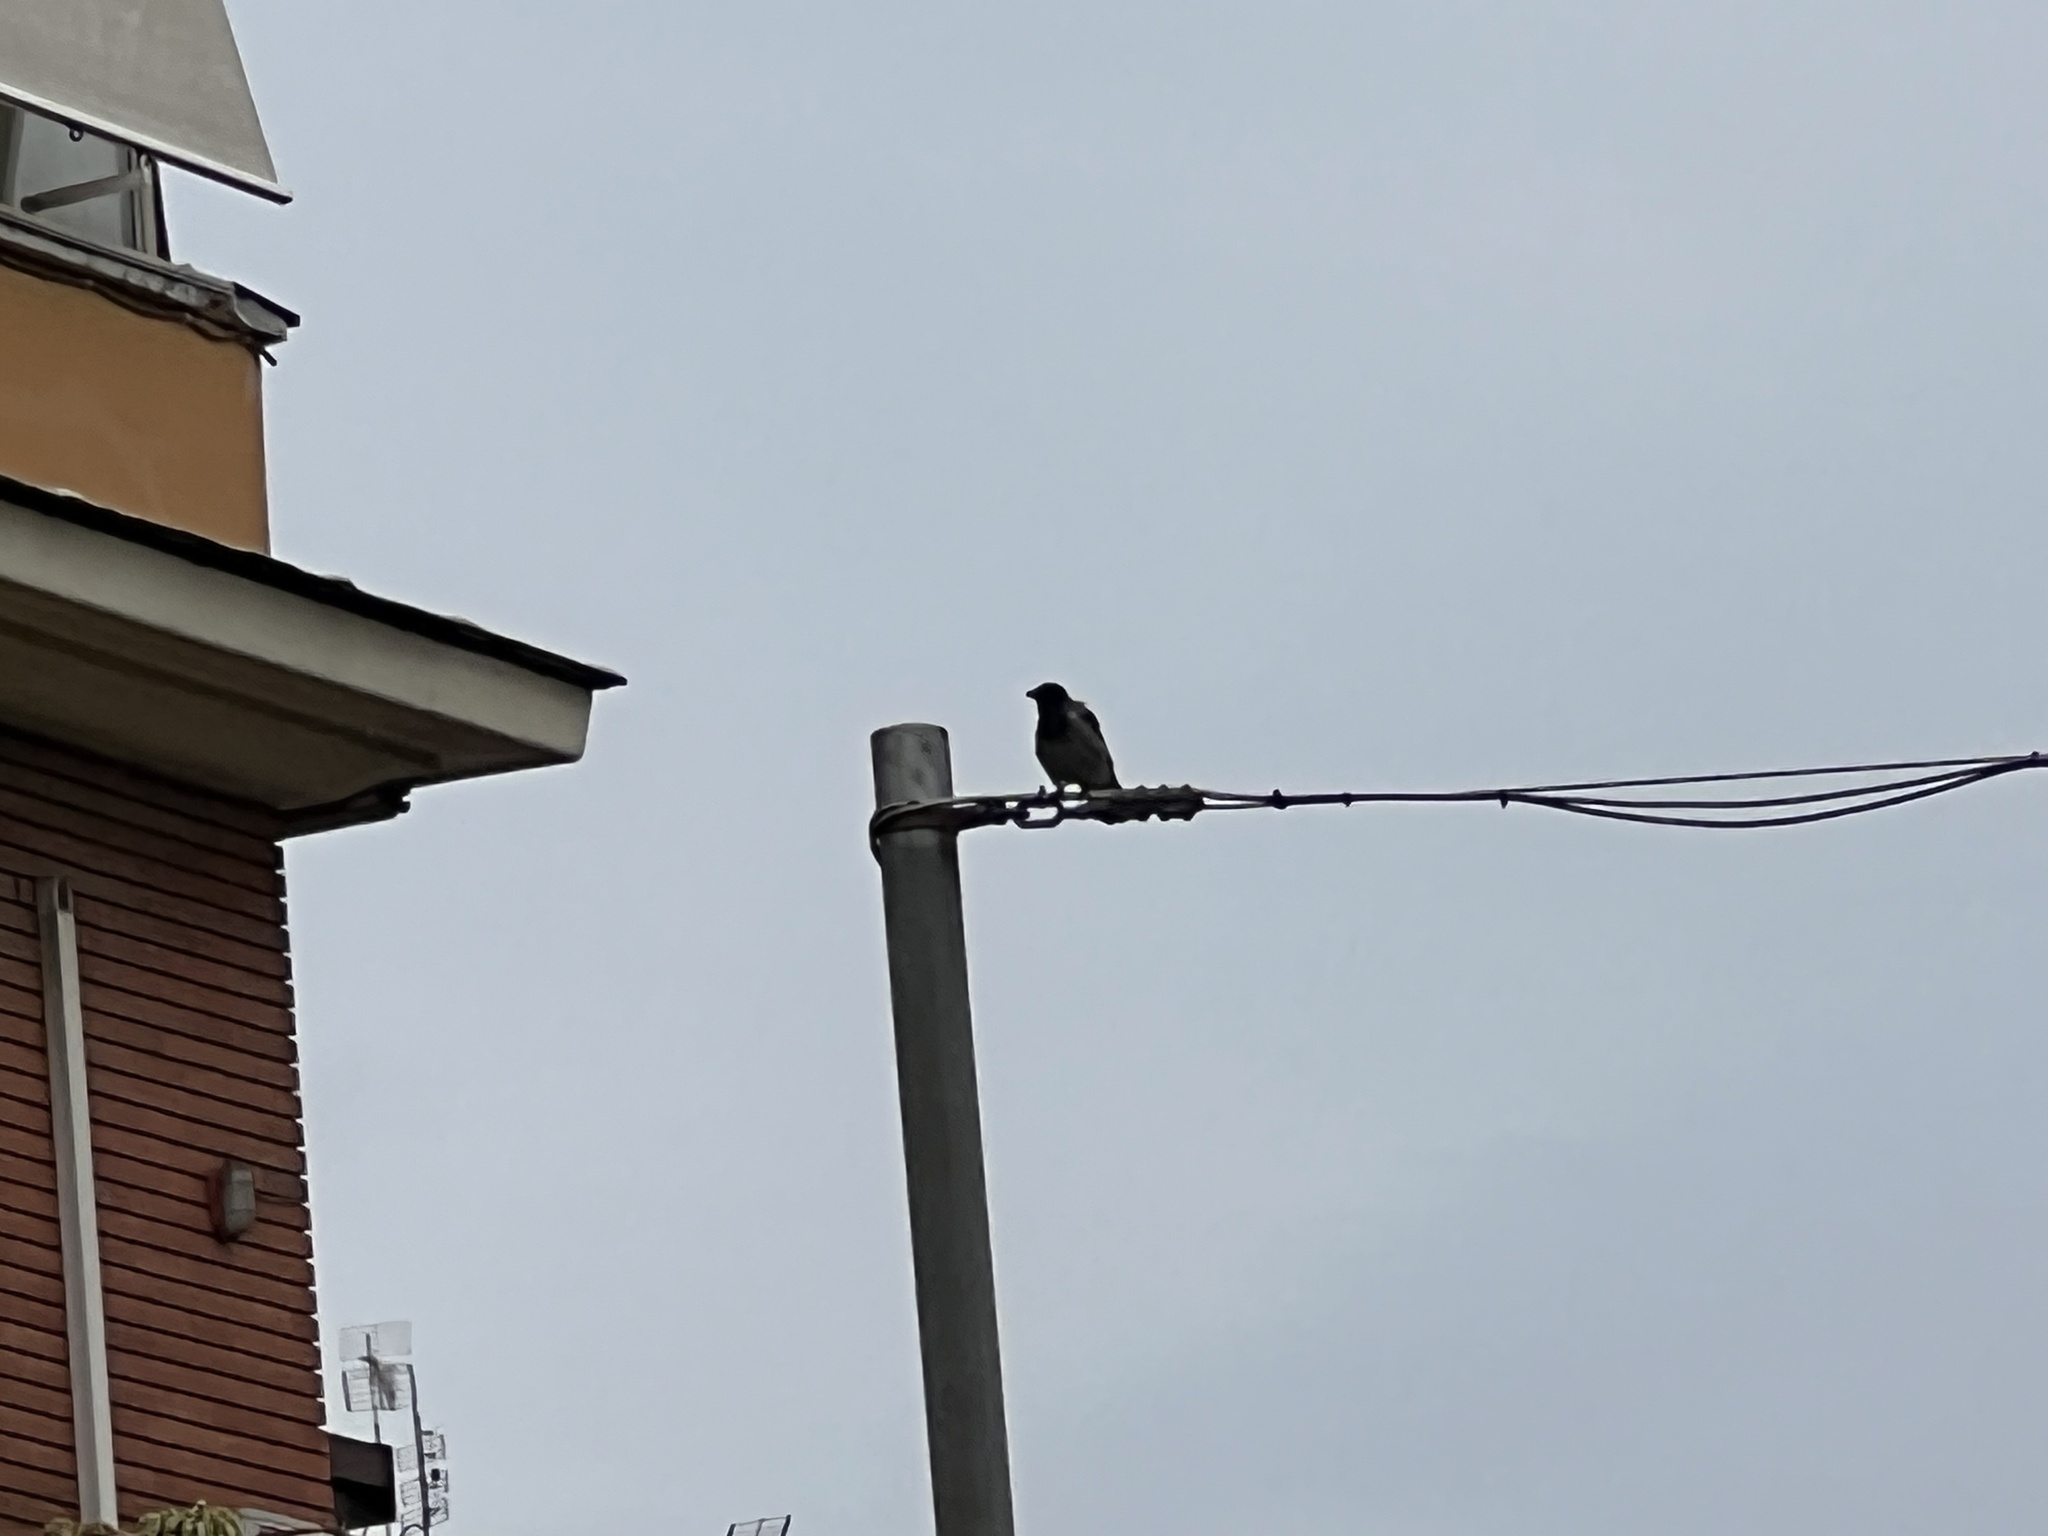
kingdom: Animalia
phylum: Chordata
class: Aves
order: Passeriformes
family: Corvidae
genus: Corvus
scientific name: Corvus cornix
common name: Hooded crow
